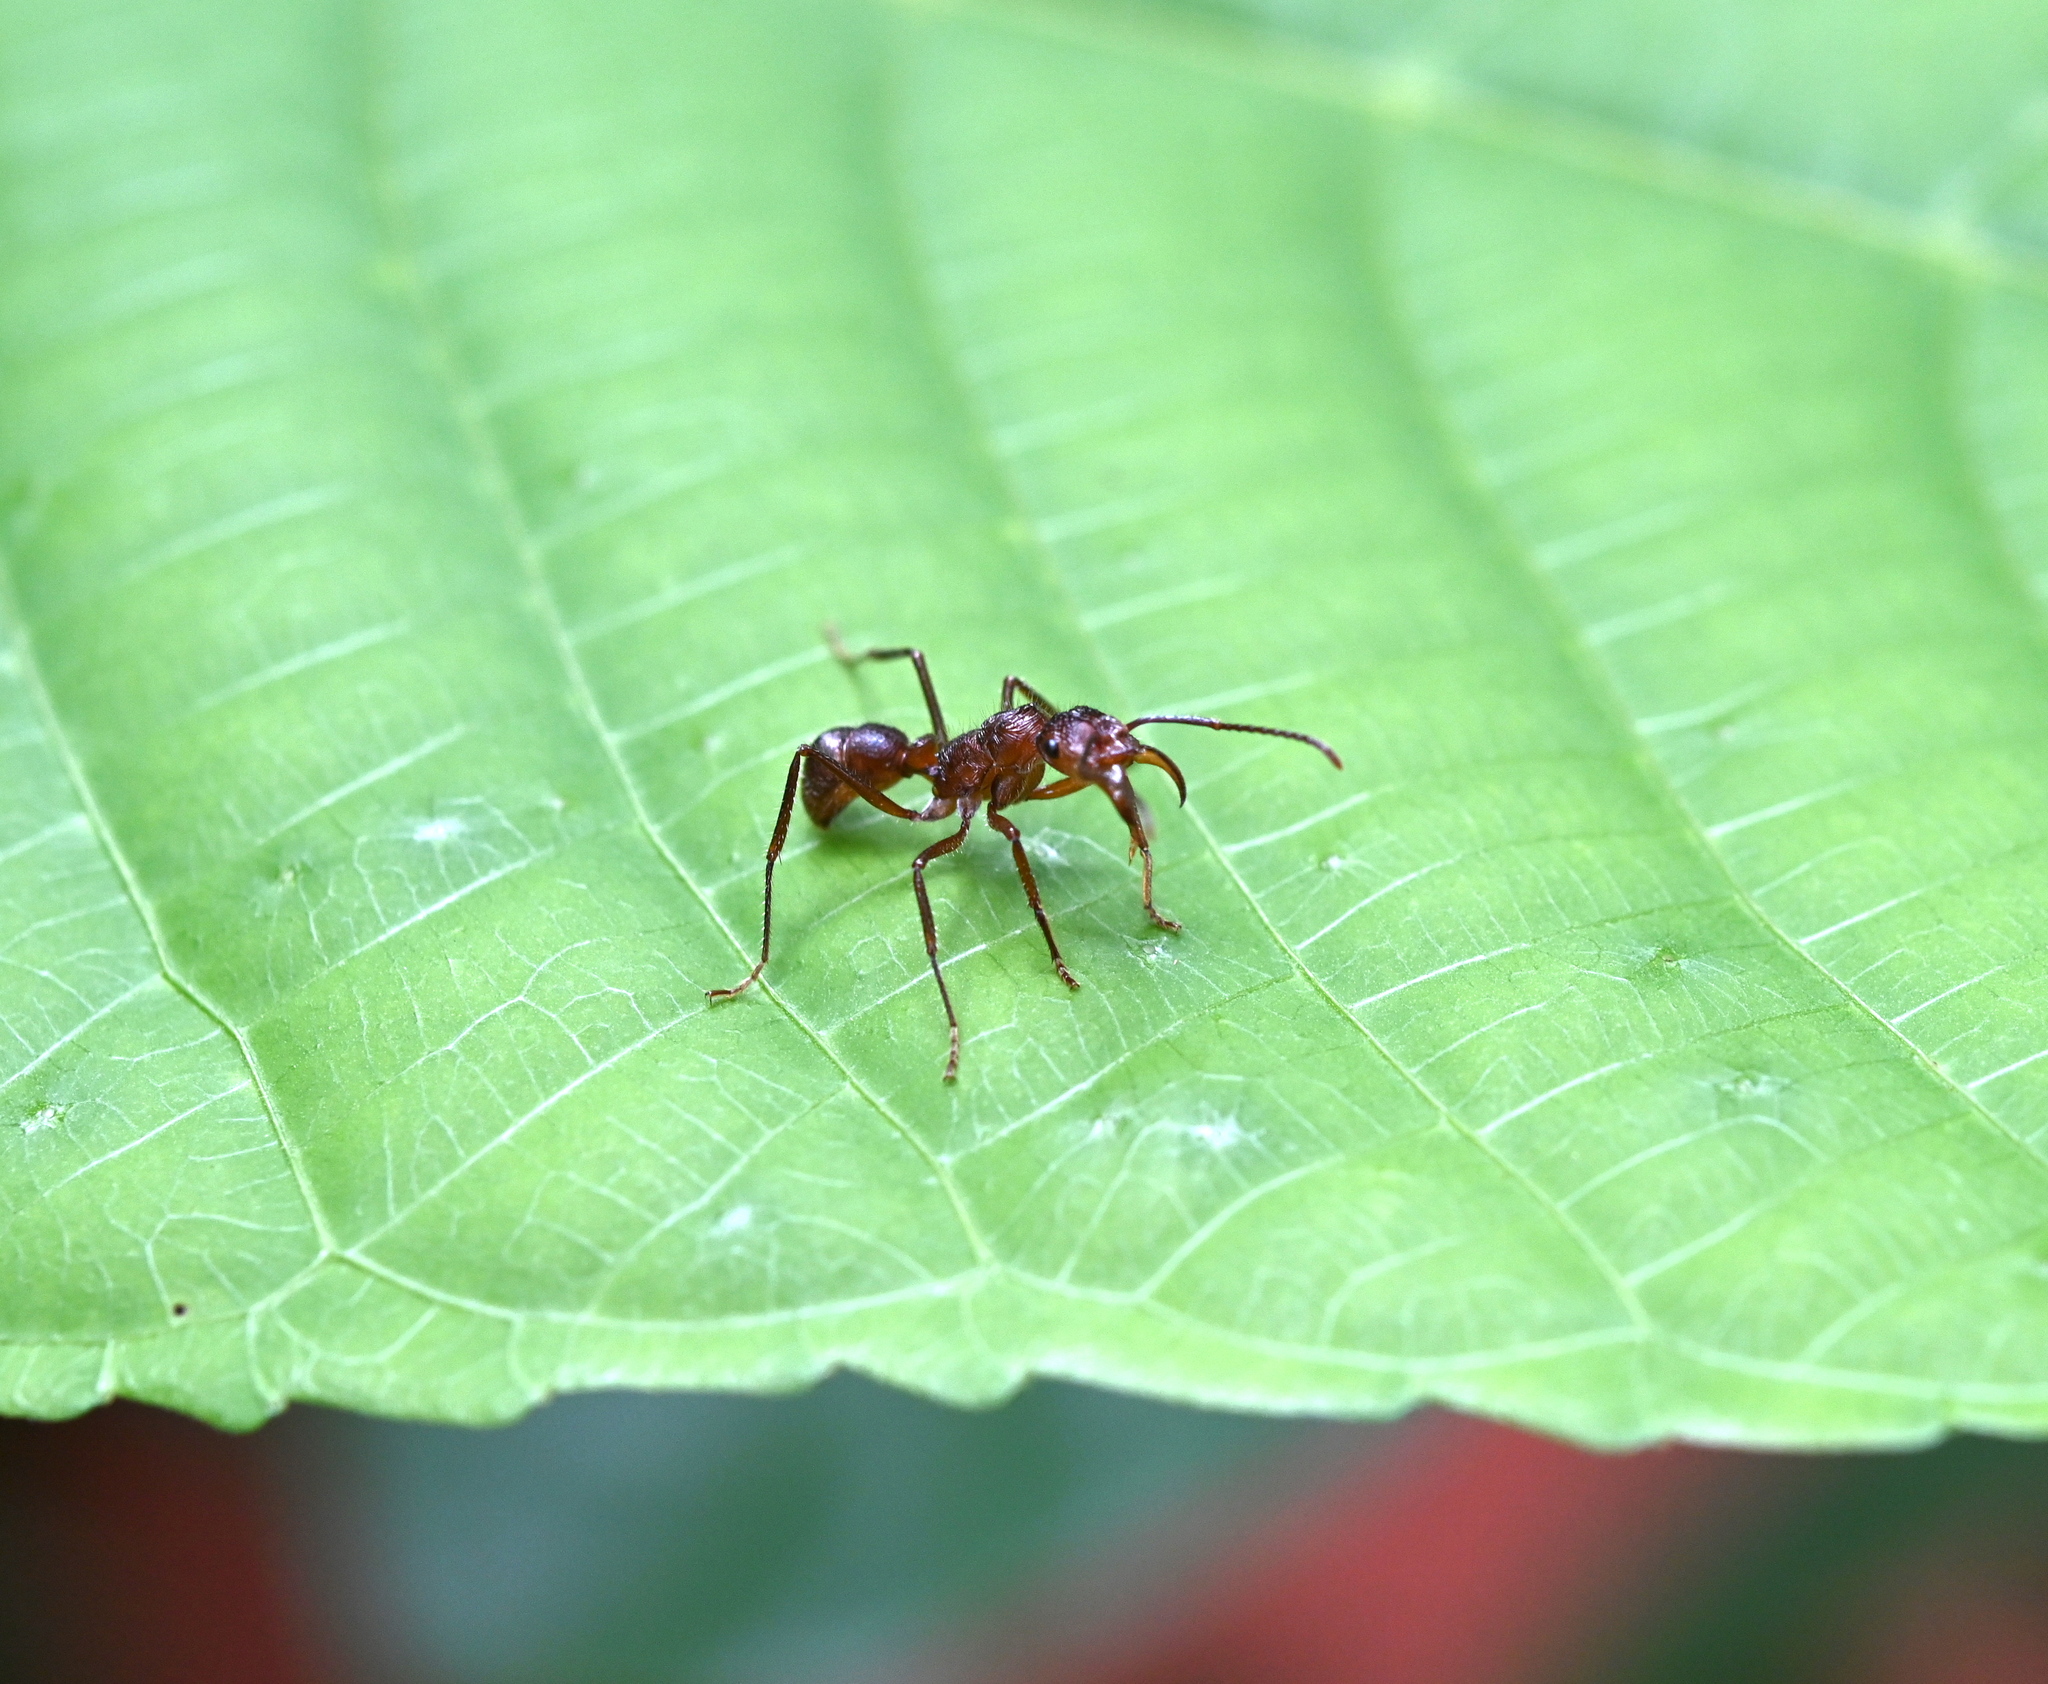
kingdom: Animalia
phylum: Arthropoda
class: Insecta
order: Hymenoptera
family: Formicidae
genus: Ectatomma
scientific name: Ectatomma tuberculatum
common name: Ant
